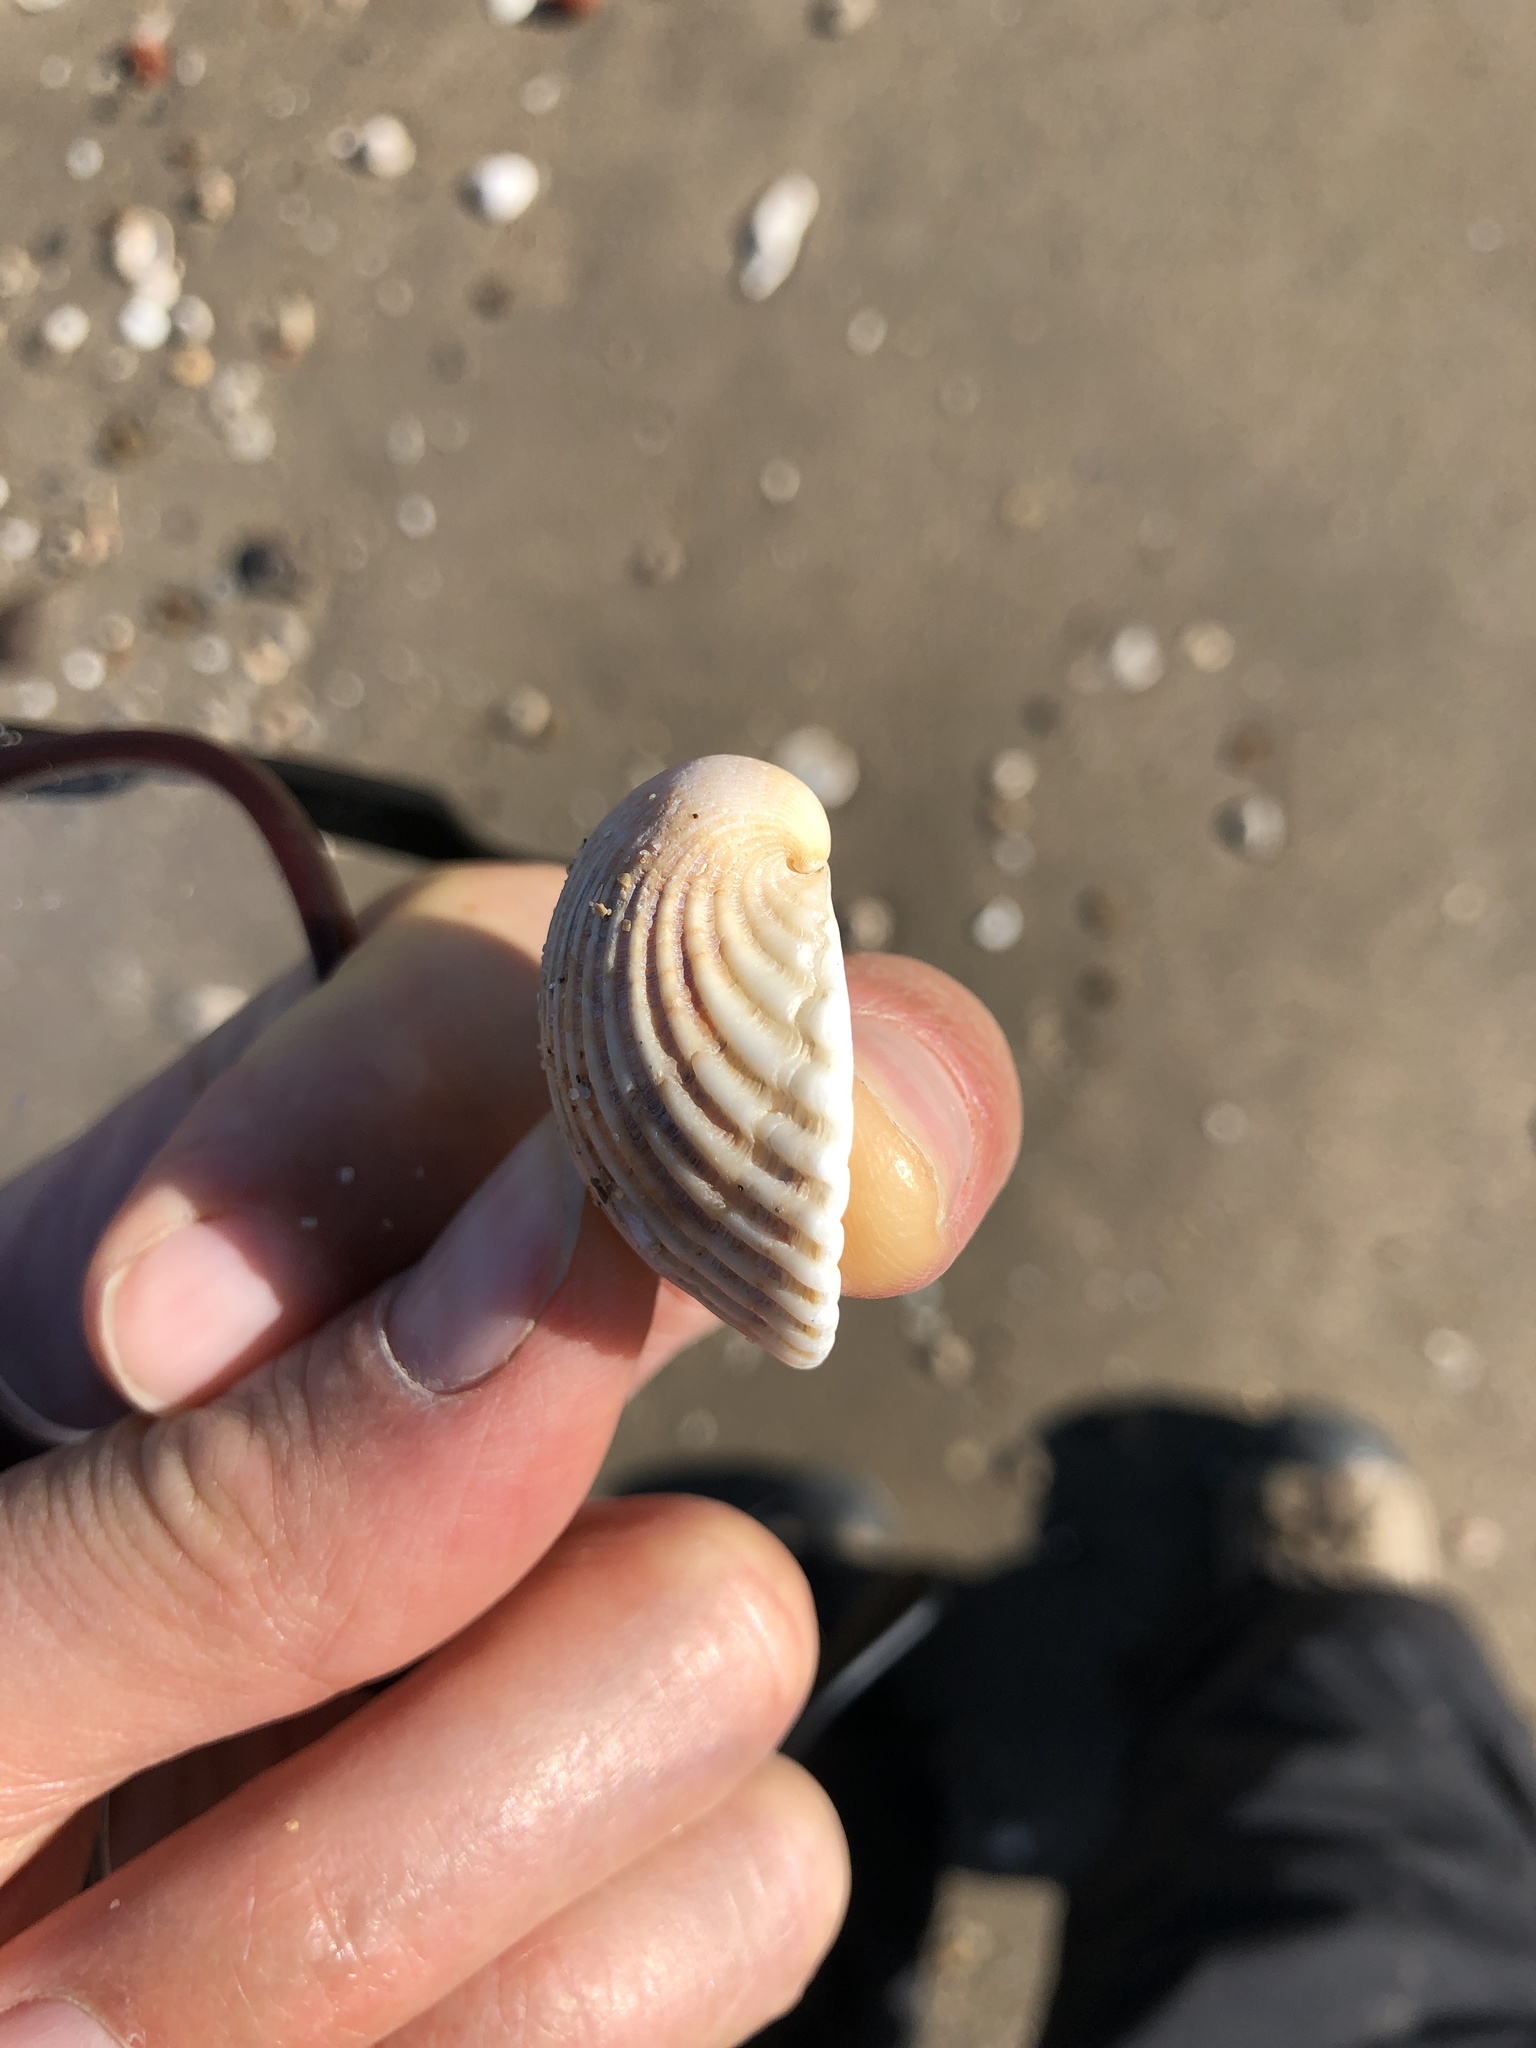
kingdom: Animalia
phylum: Mollusca
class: Bivalvia
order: Arcida
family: Arcidae
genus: Lunarca
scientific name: Lunarca ovalis
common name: Blood ark
